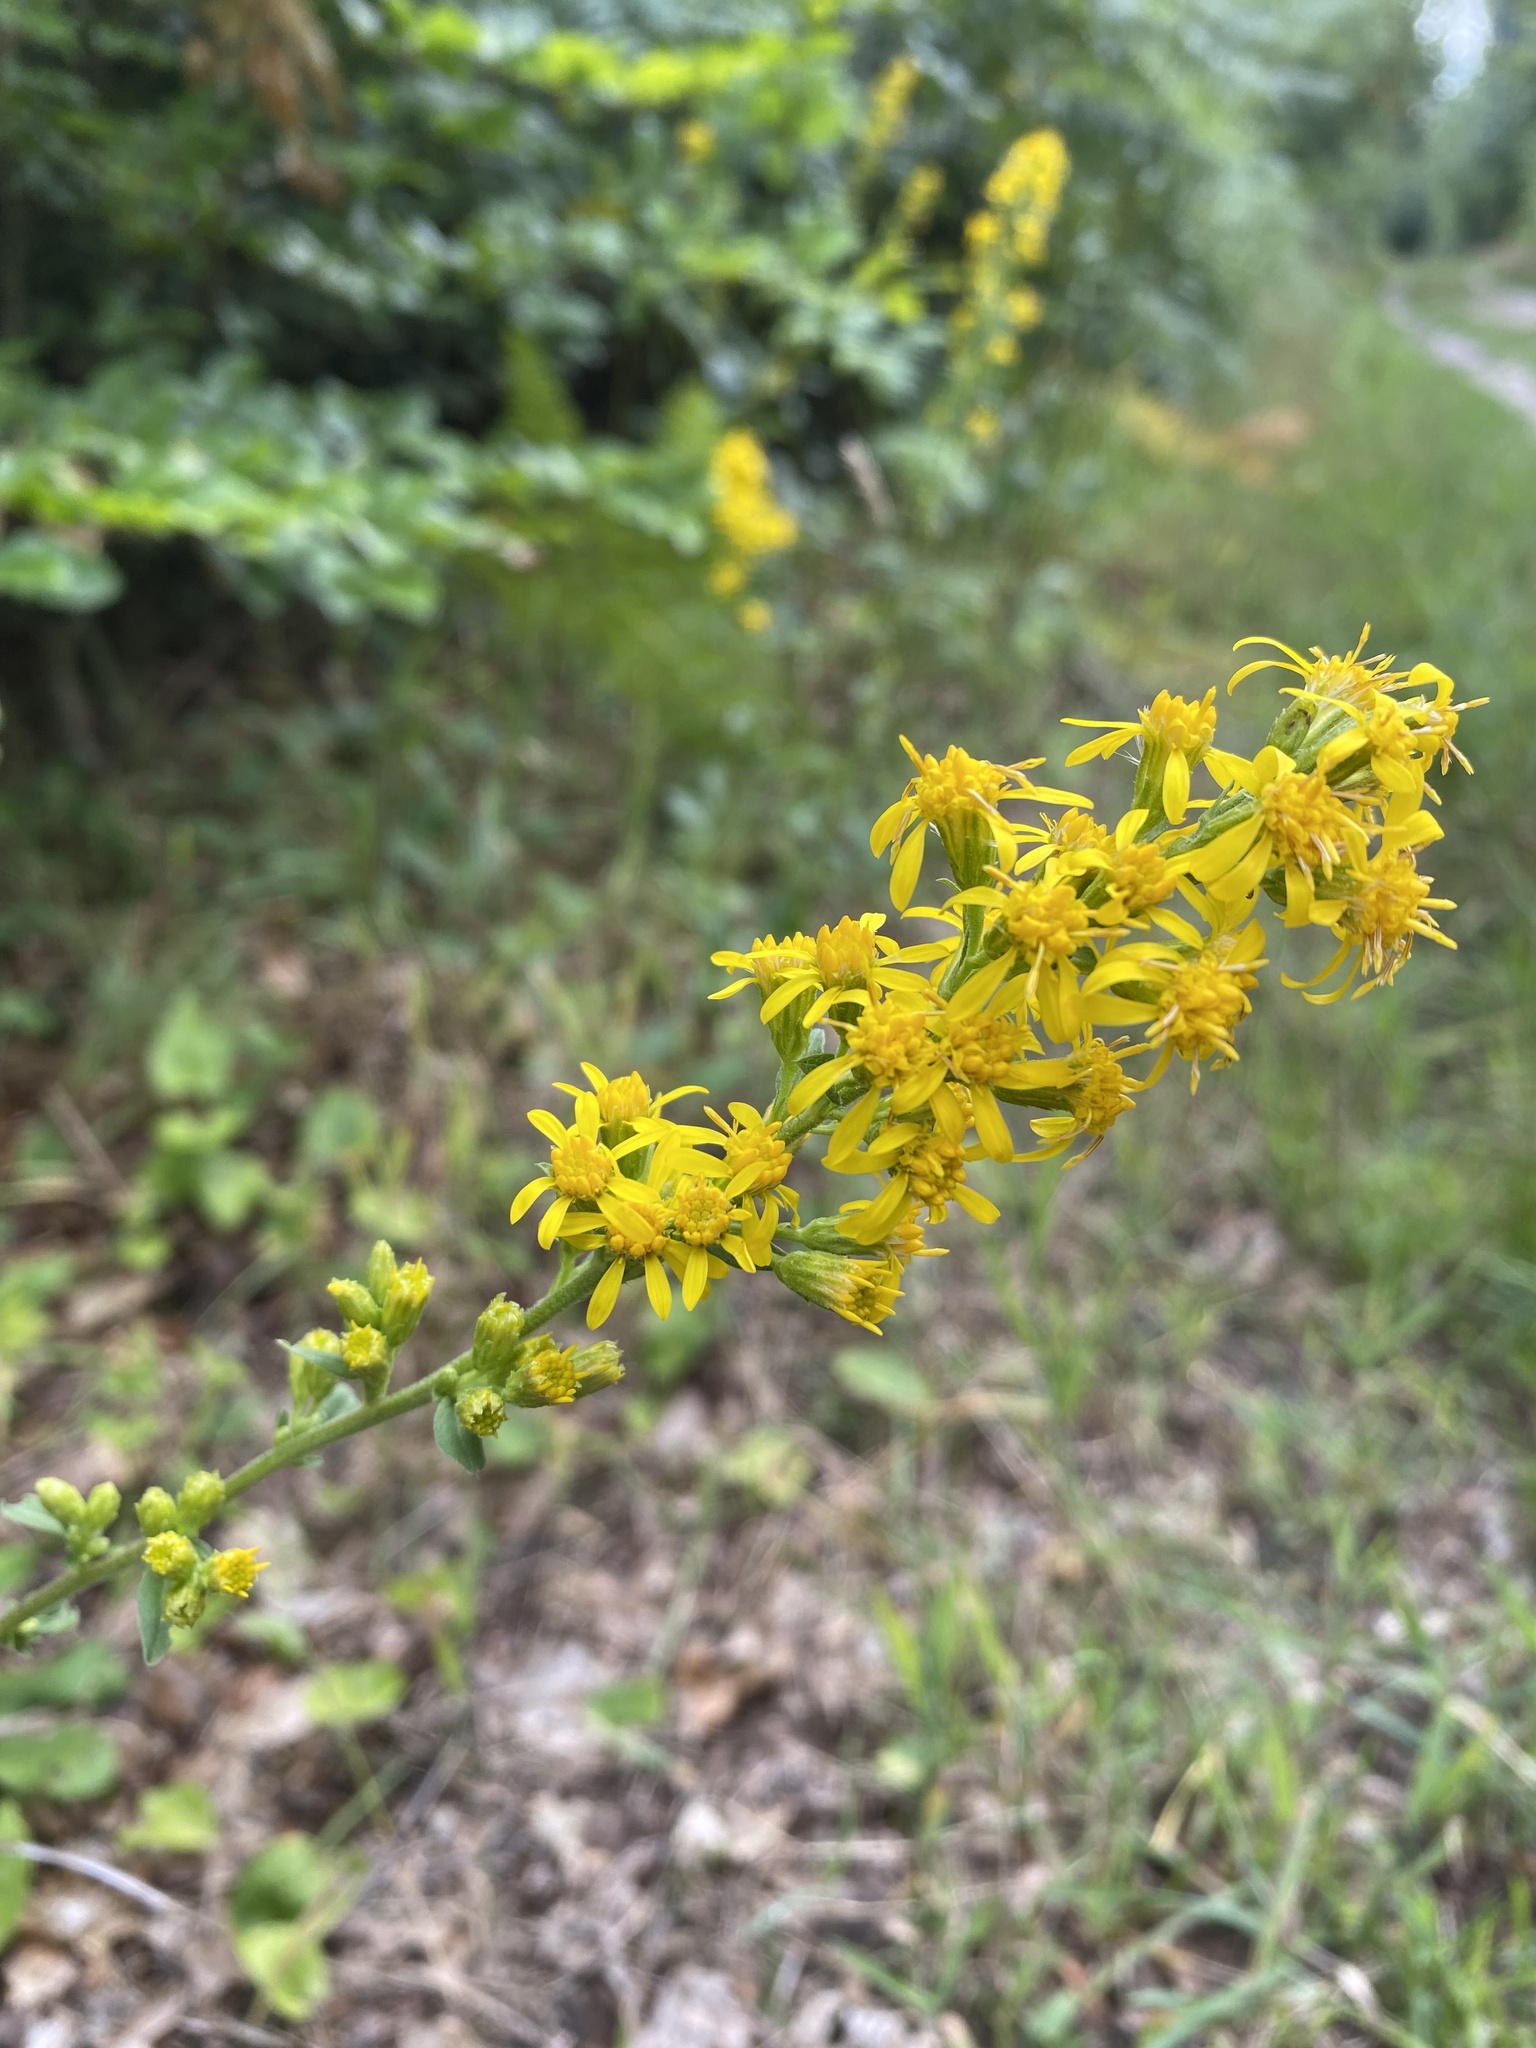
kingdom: Plantae
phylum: Tracheophyta
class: Magnoliopsida
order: Asterales
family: Asteraceae
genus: Solidago
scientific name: Solidago virgaurea
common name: Goldenrod
